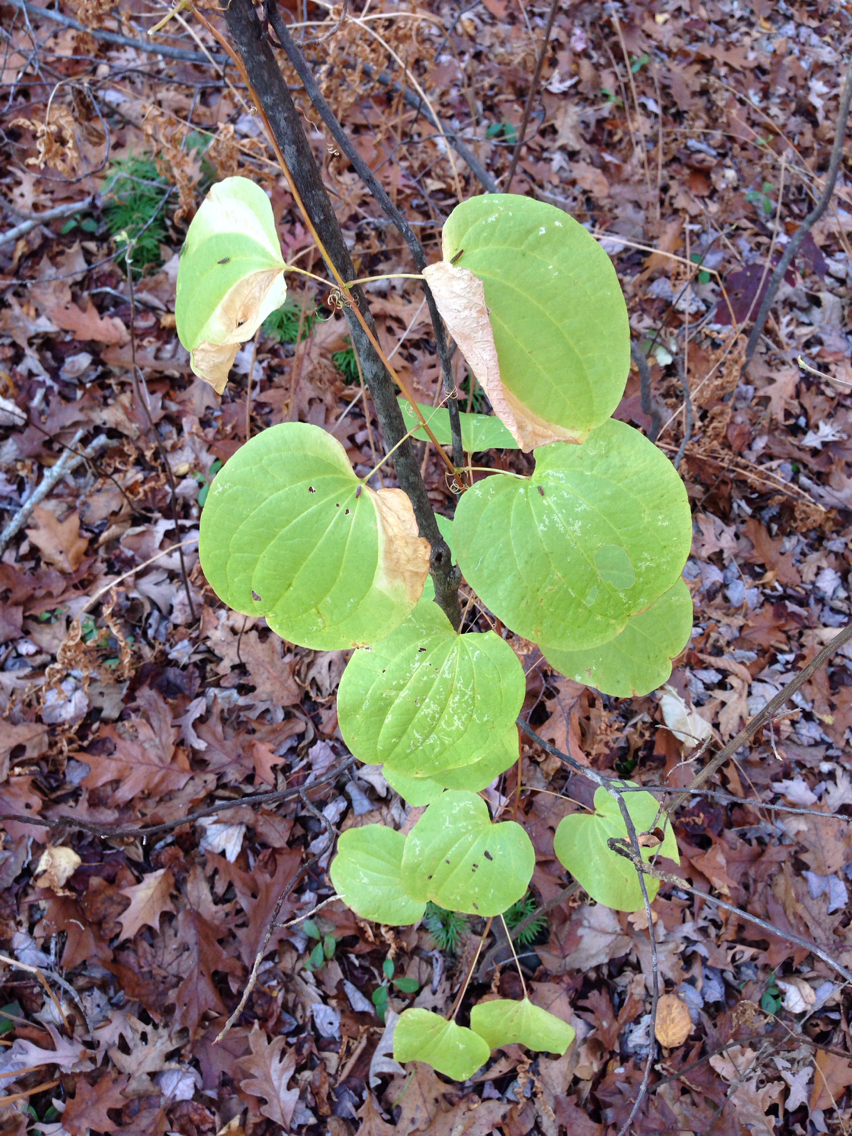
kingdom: Plantae
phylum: Tracheophyta
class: Liliopsida
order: Liliales
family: Smilacaceae
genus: Smilax
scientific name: Smilax herbacea
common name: Jacob's-ladder
